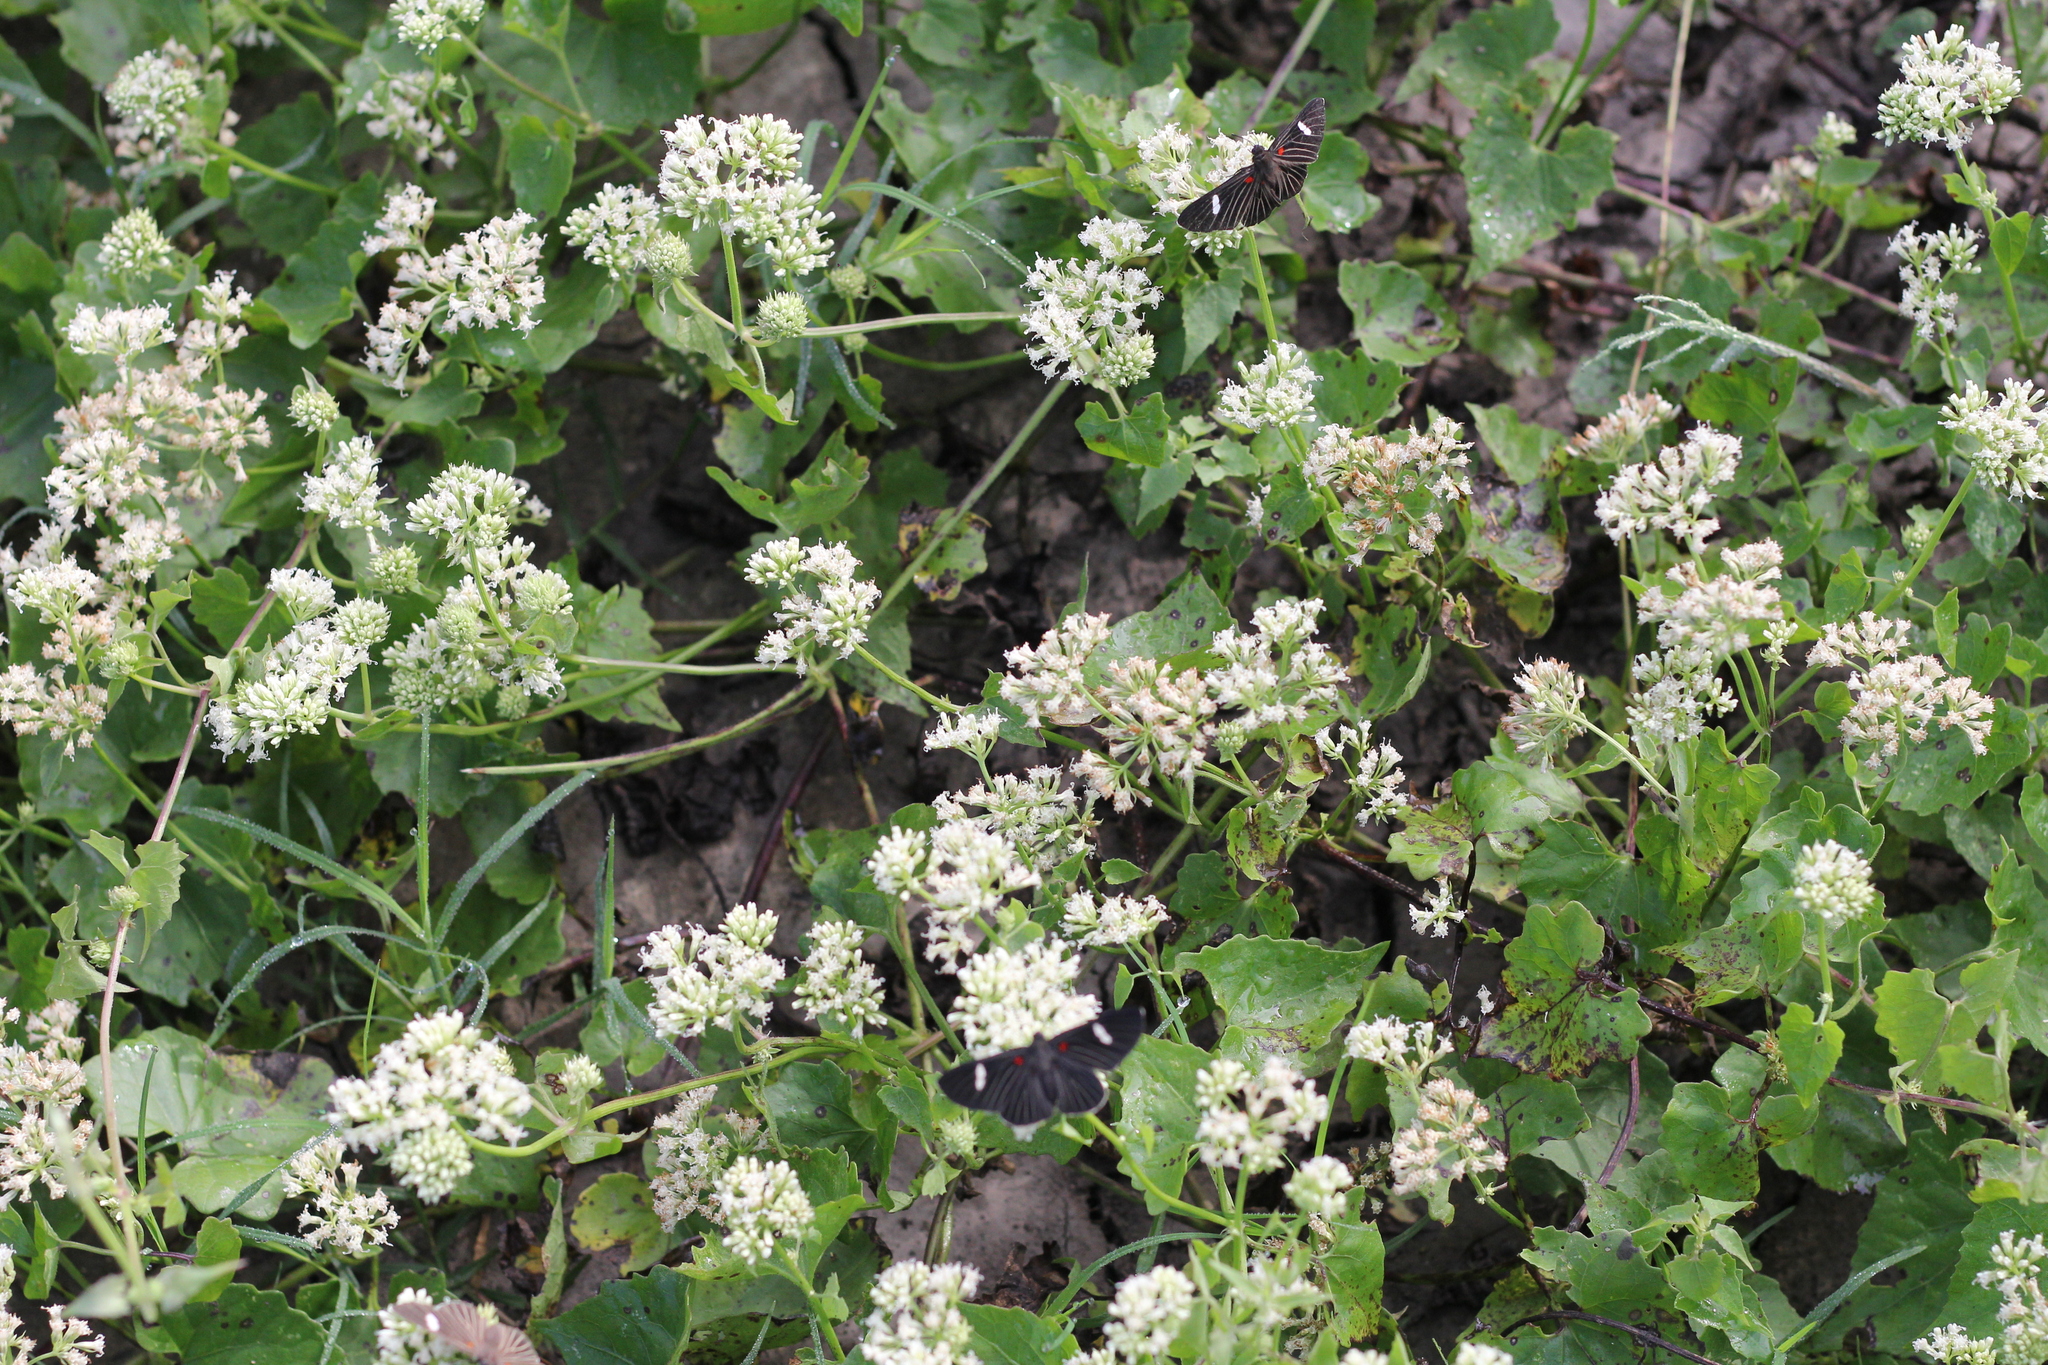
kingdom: Plantae
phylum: Tracheophyta
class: Magnoliopsida
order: Asterales
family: Asteraceae
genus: Mikania
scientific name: Mikania periplocifolia
